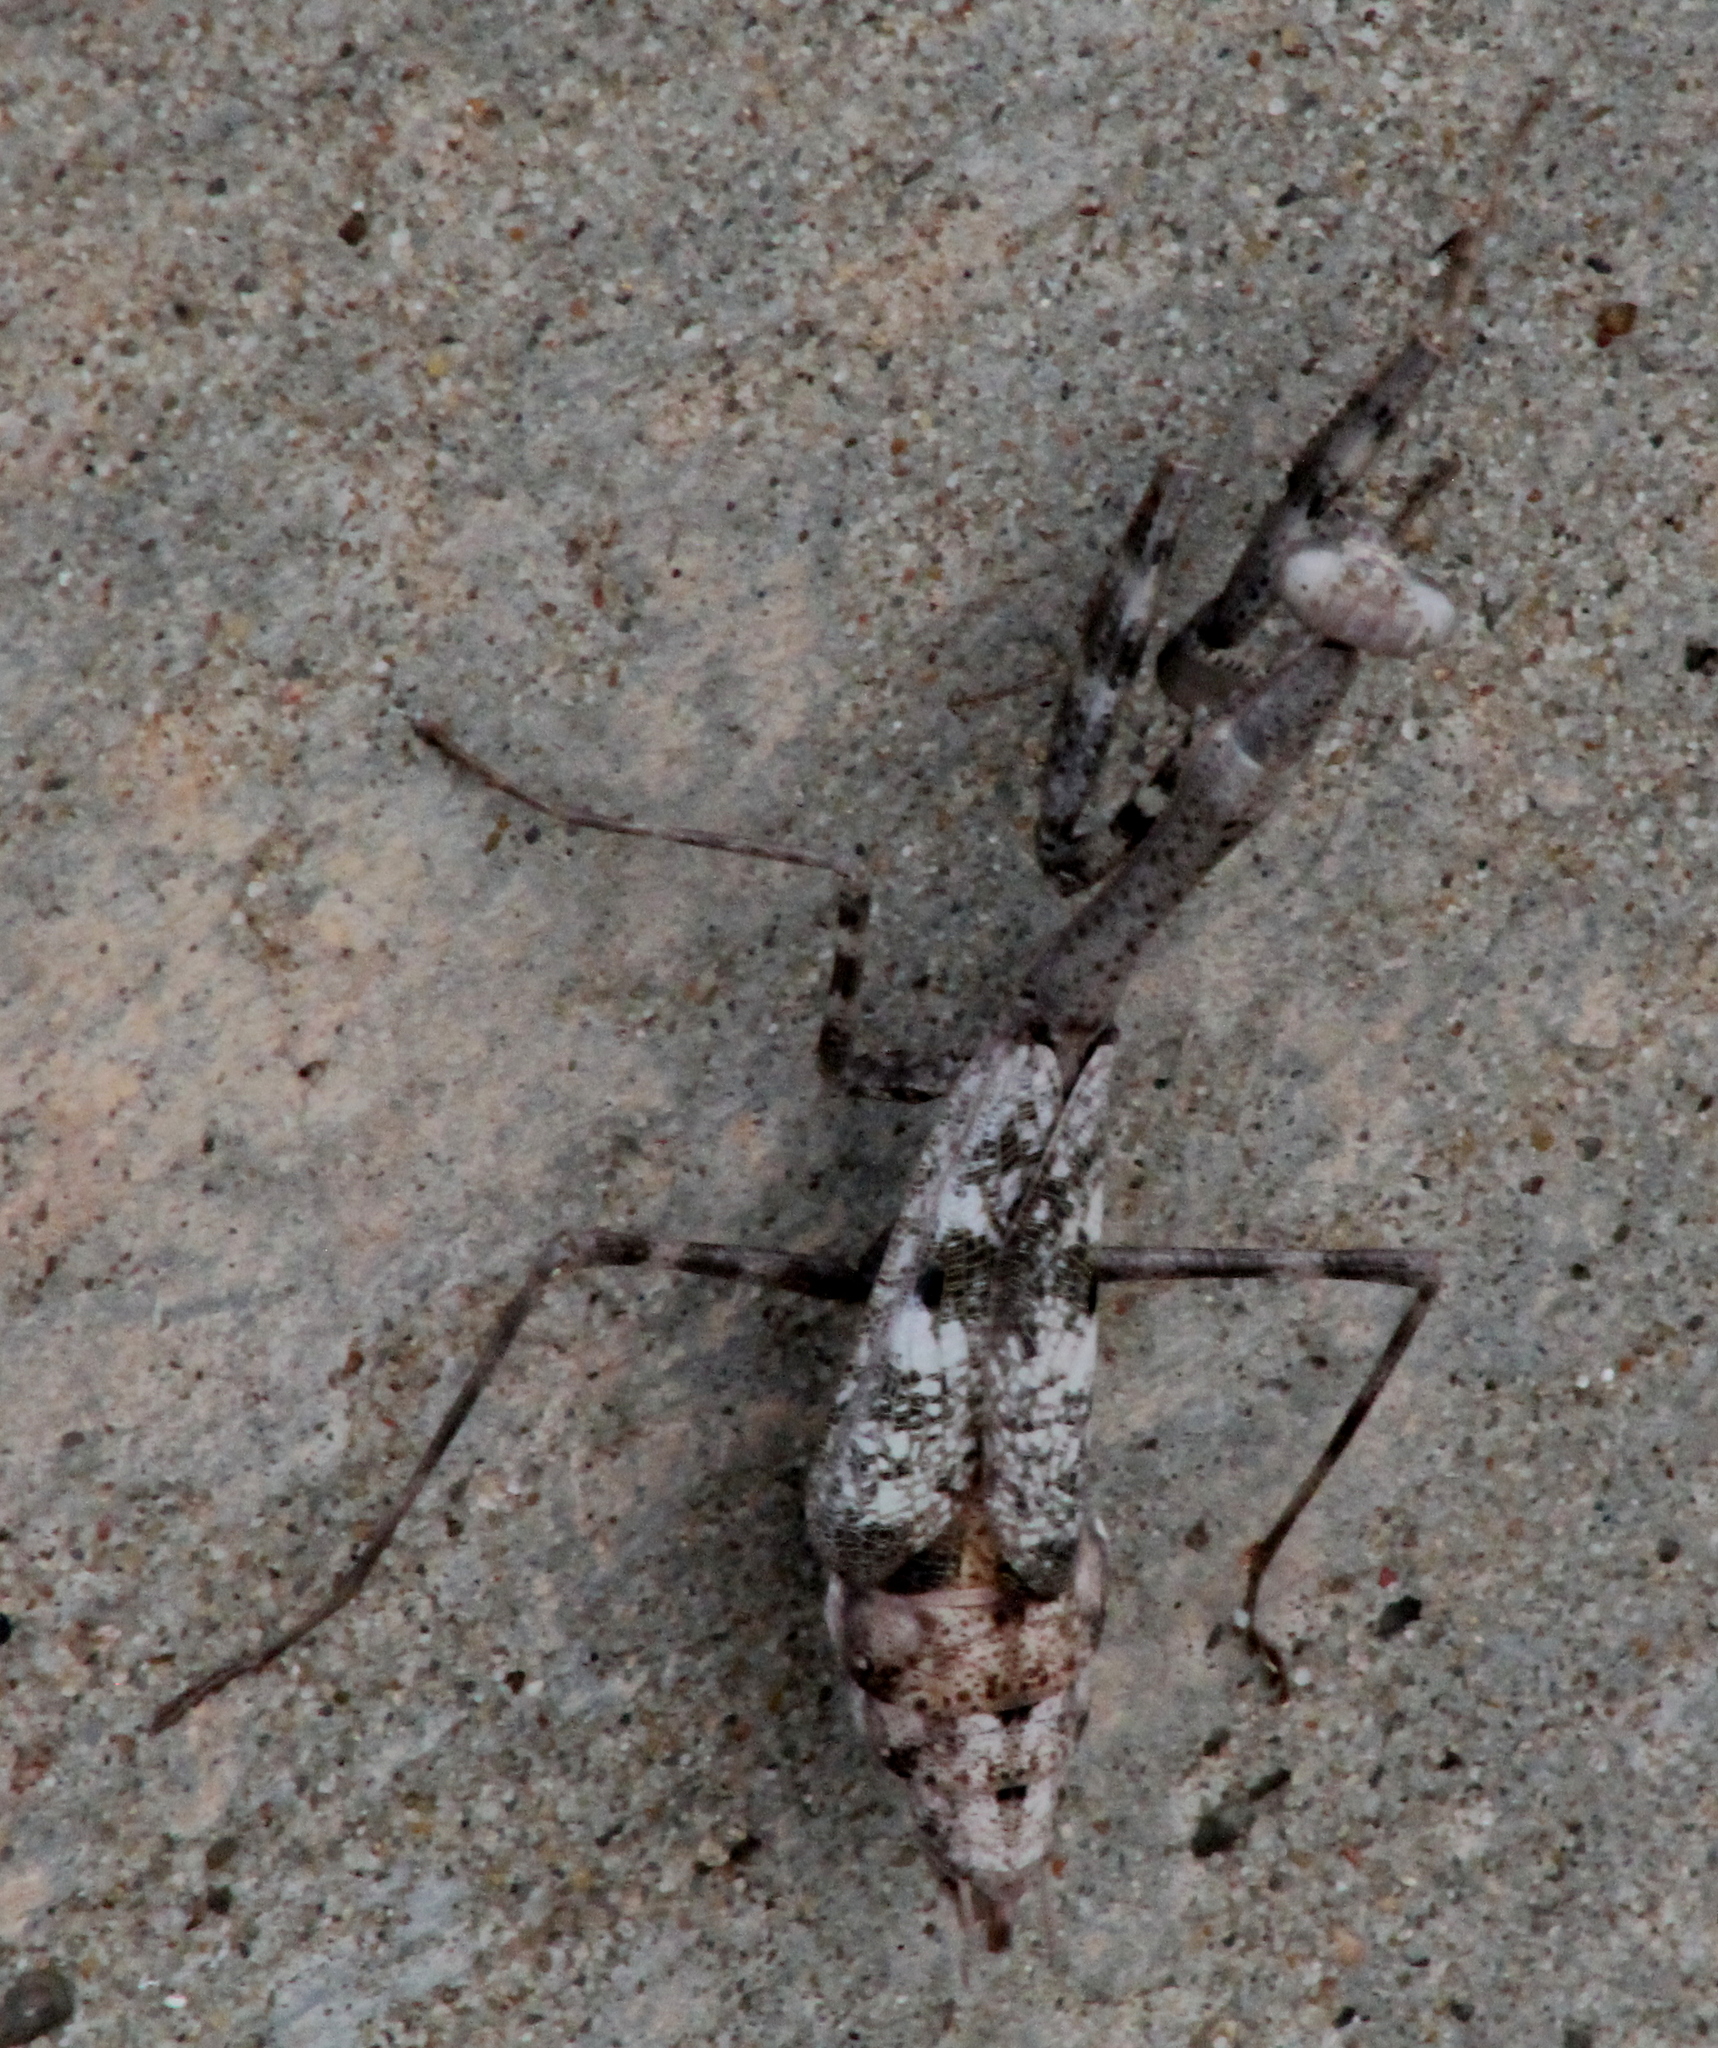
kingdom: Animalia
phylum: Arthropoda
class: Insecta
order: Mantodea
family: Mantidae
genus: Stagmomantis
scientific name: Stagmomantis carolina
